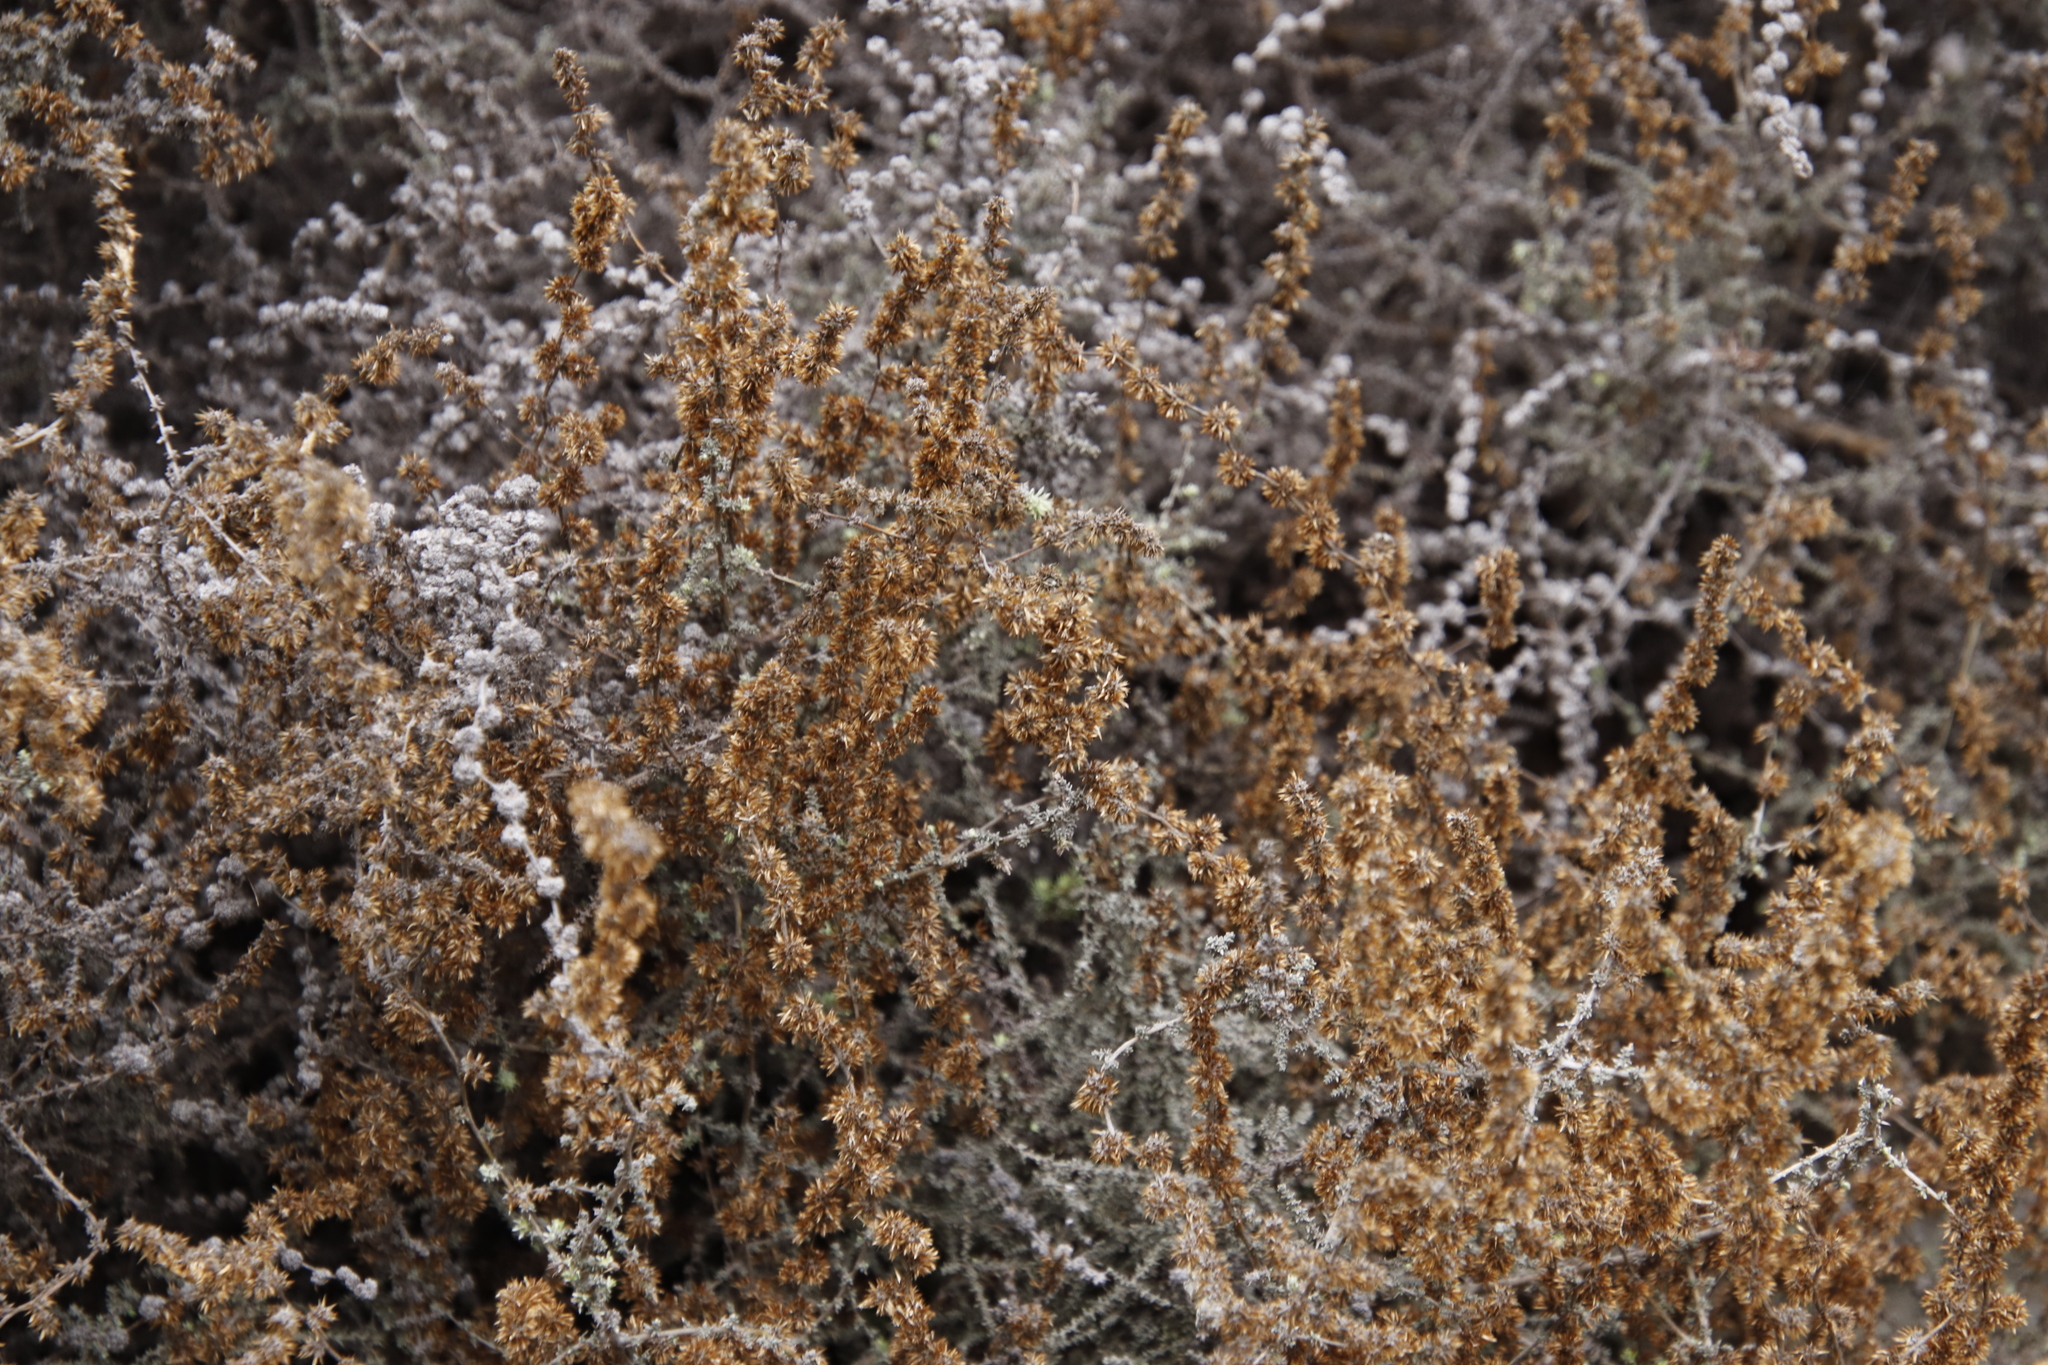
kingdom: Plantae
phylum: Tracheophyta
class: Magnoliopsida
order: Asterales
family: Asteraceae
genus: Seriphium
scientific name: Seriphium plumosum
